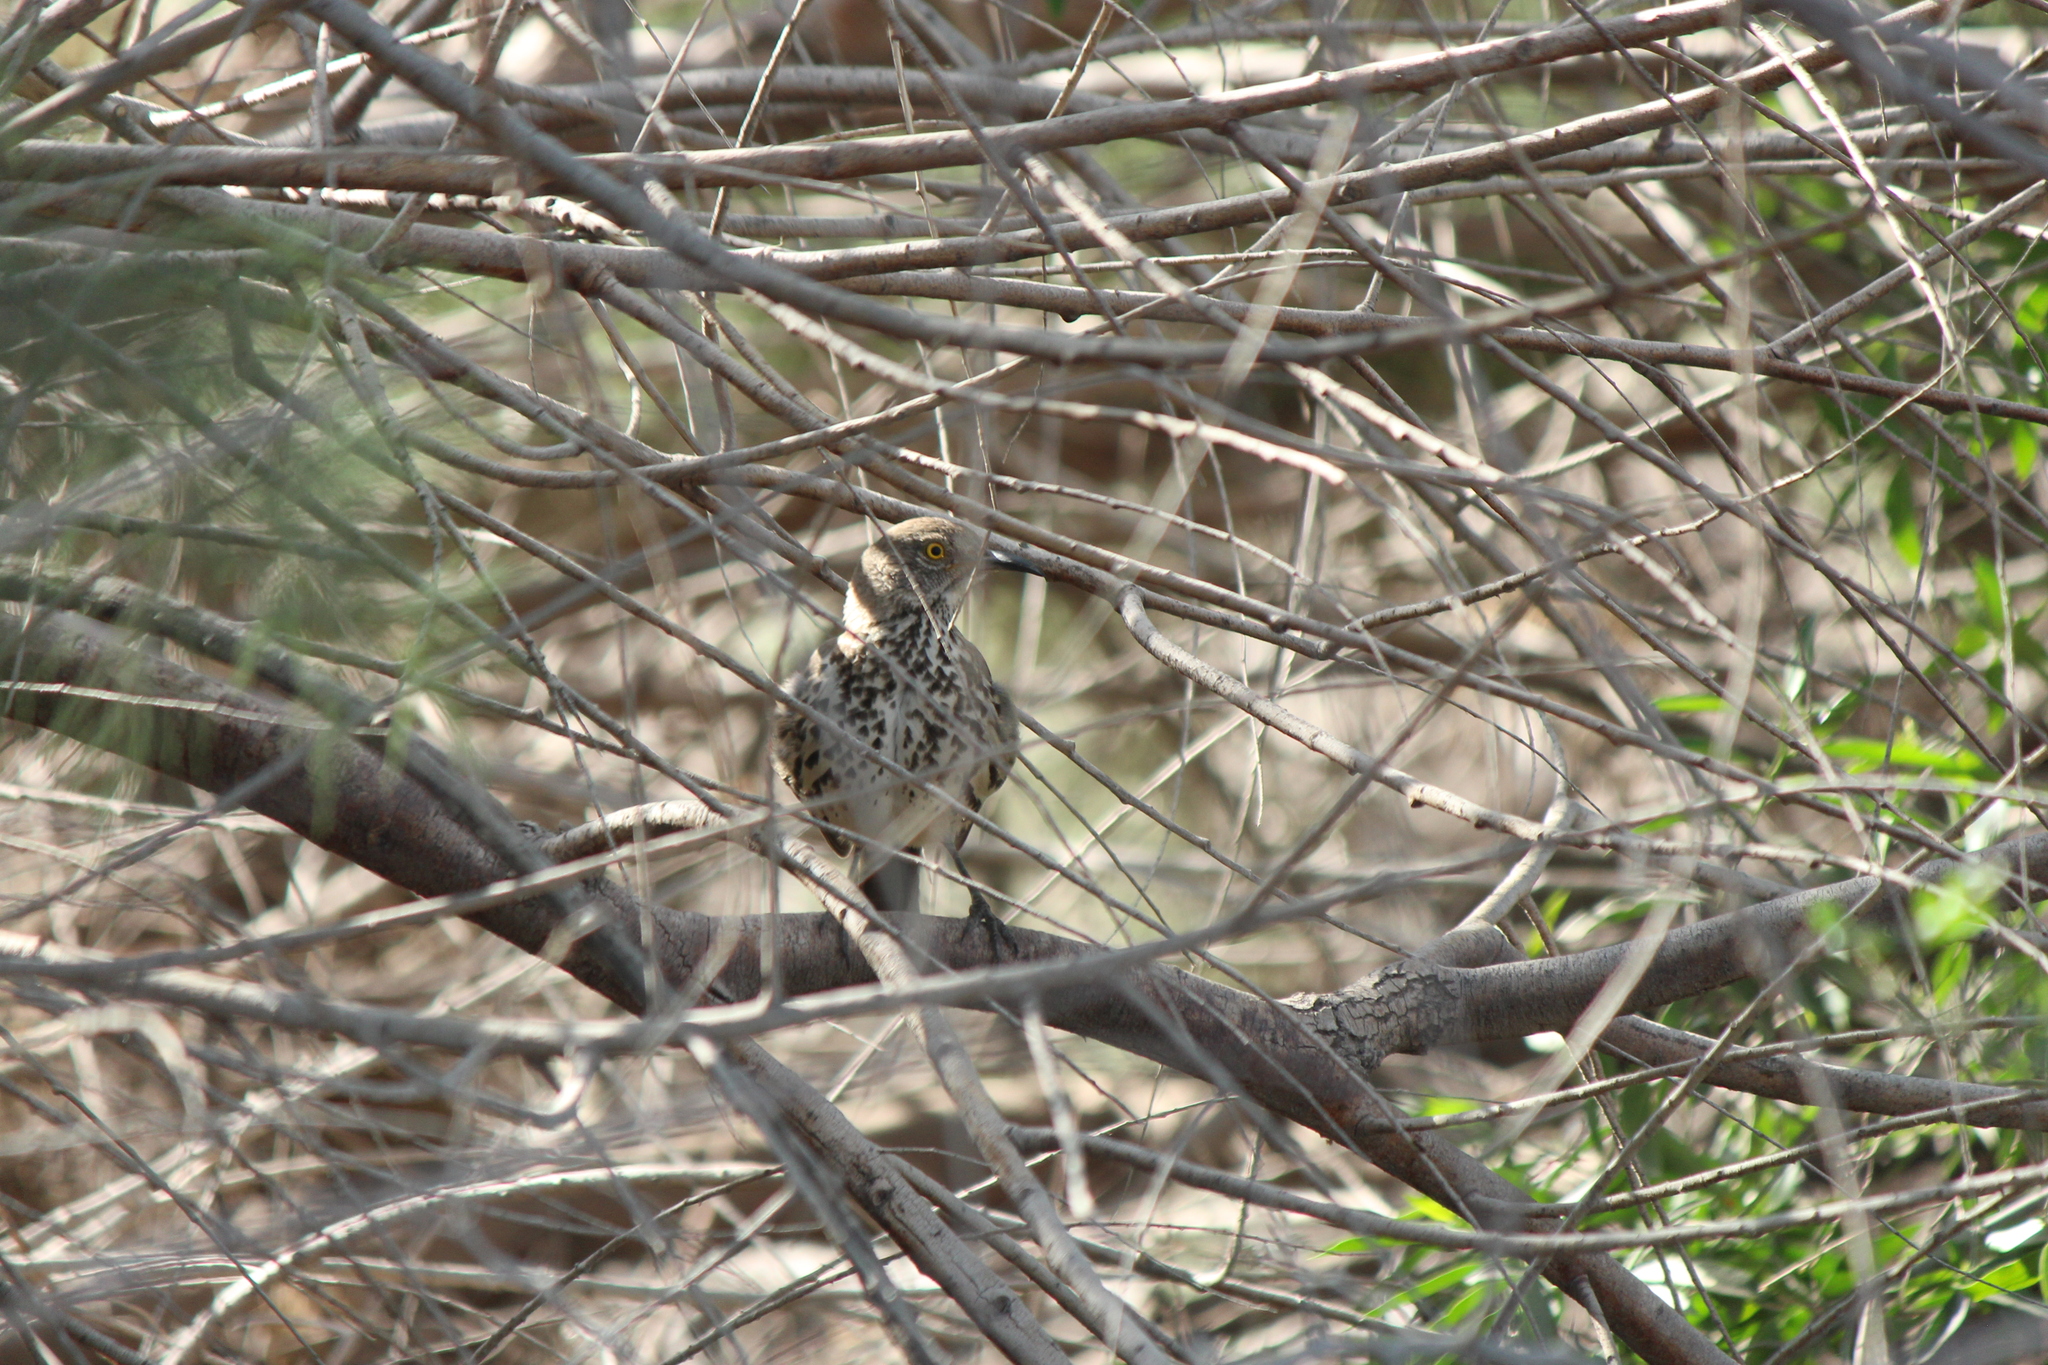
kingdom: Animalia
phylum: Chordata
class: Aves
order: Passeriformes
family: Mimidae
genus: Toxostoma
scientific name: Toxostoma cinereum
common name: Gray thrasher
